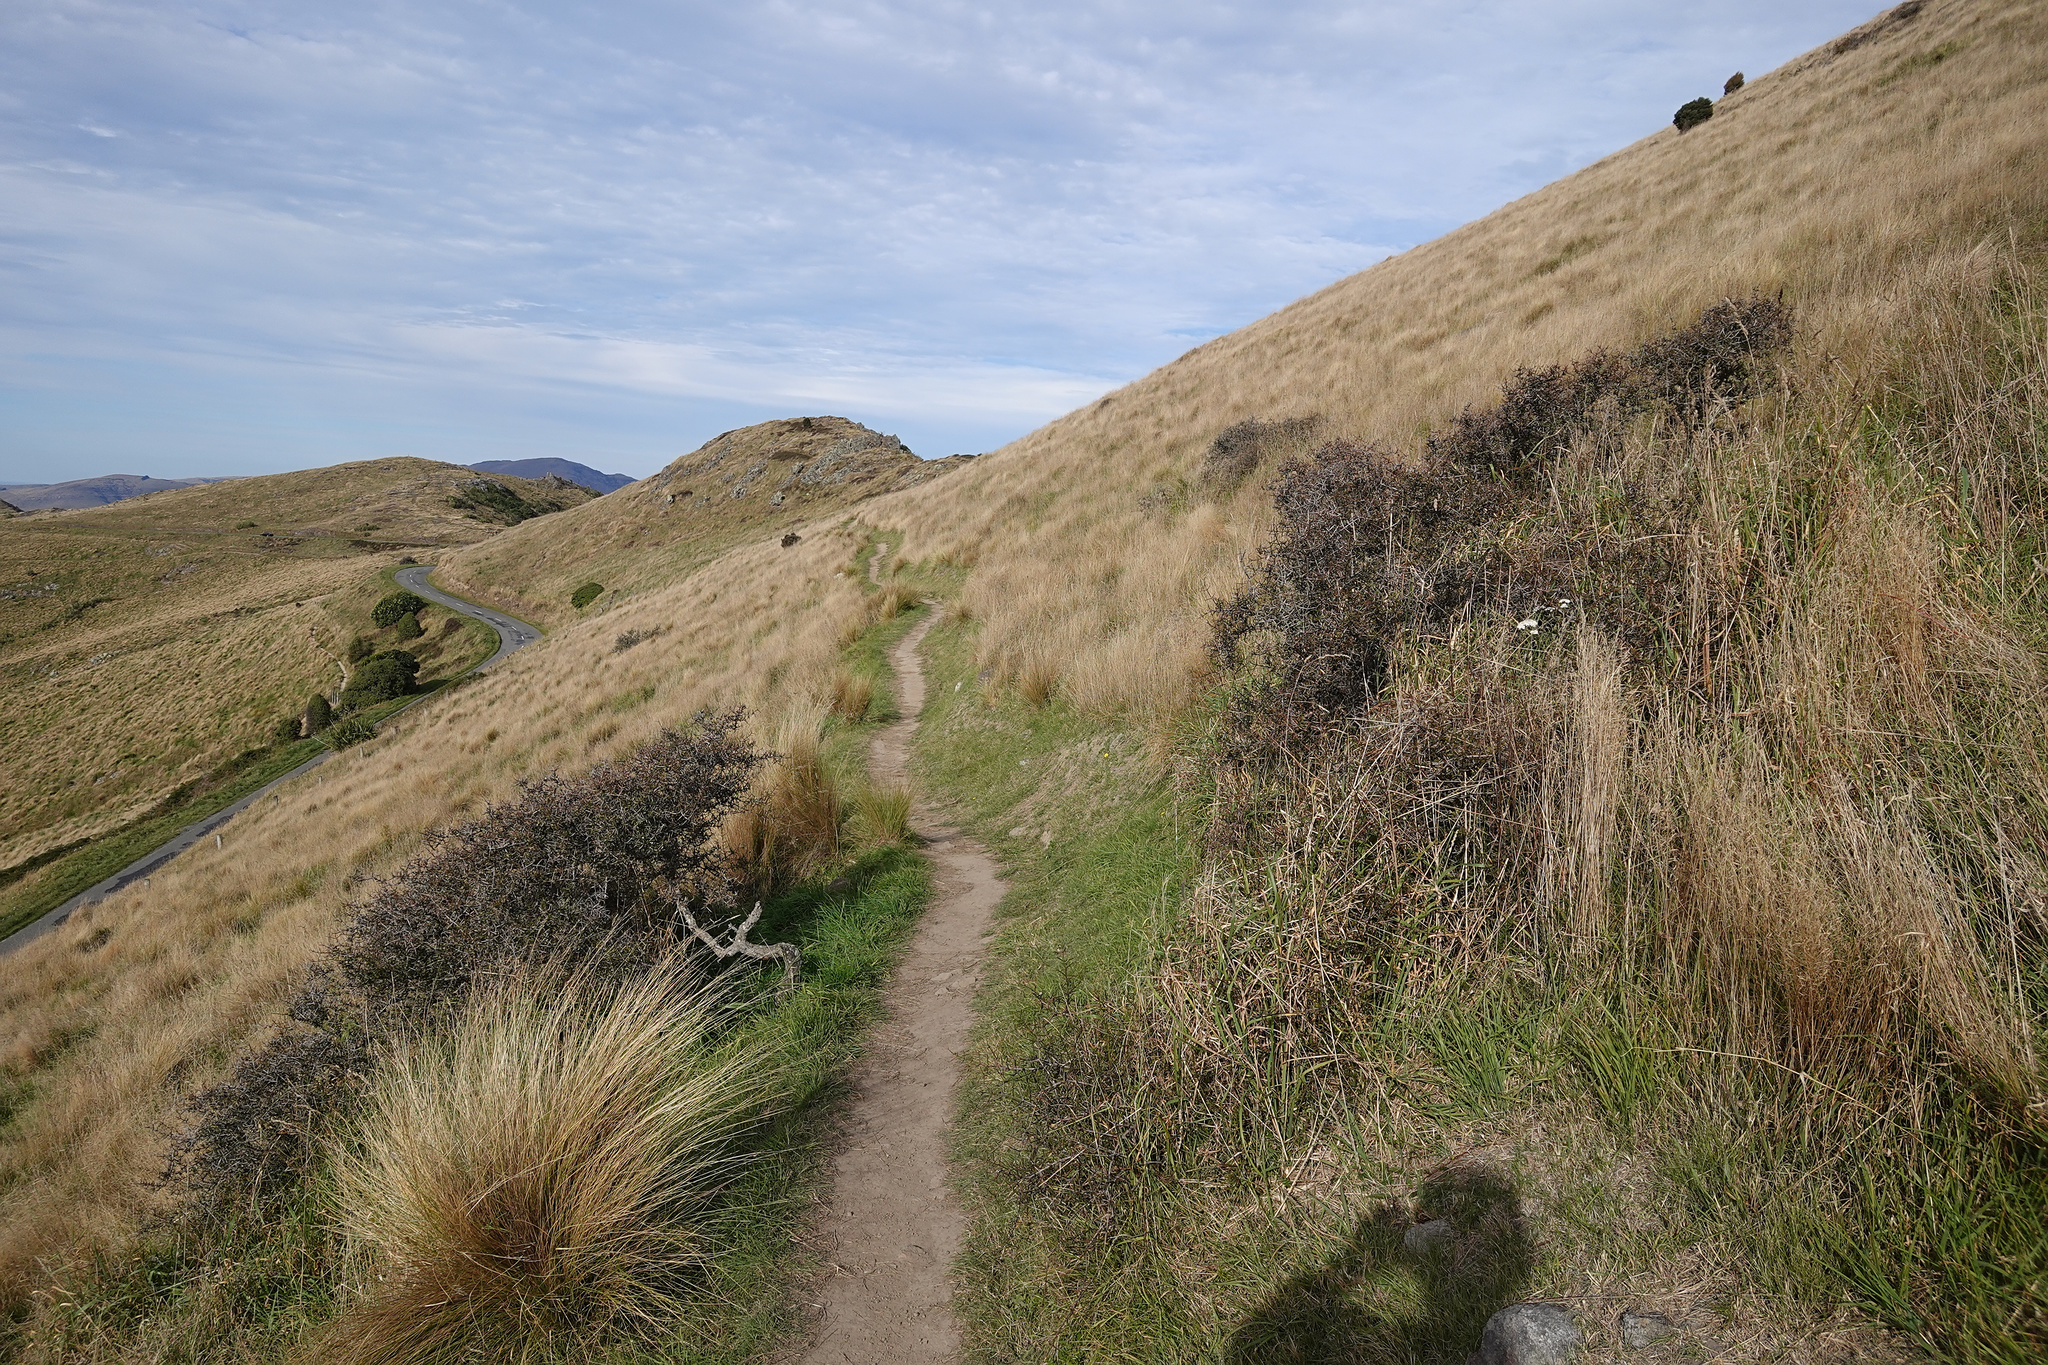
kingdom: Plantae
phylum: Tracheophyta
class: Magnoliopsida
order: Rosales
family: Rhamnaceae
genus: Discaria
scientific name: Discaria toumatou
